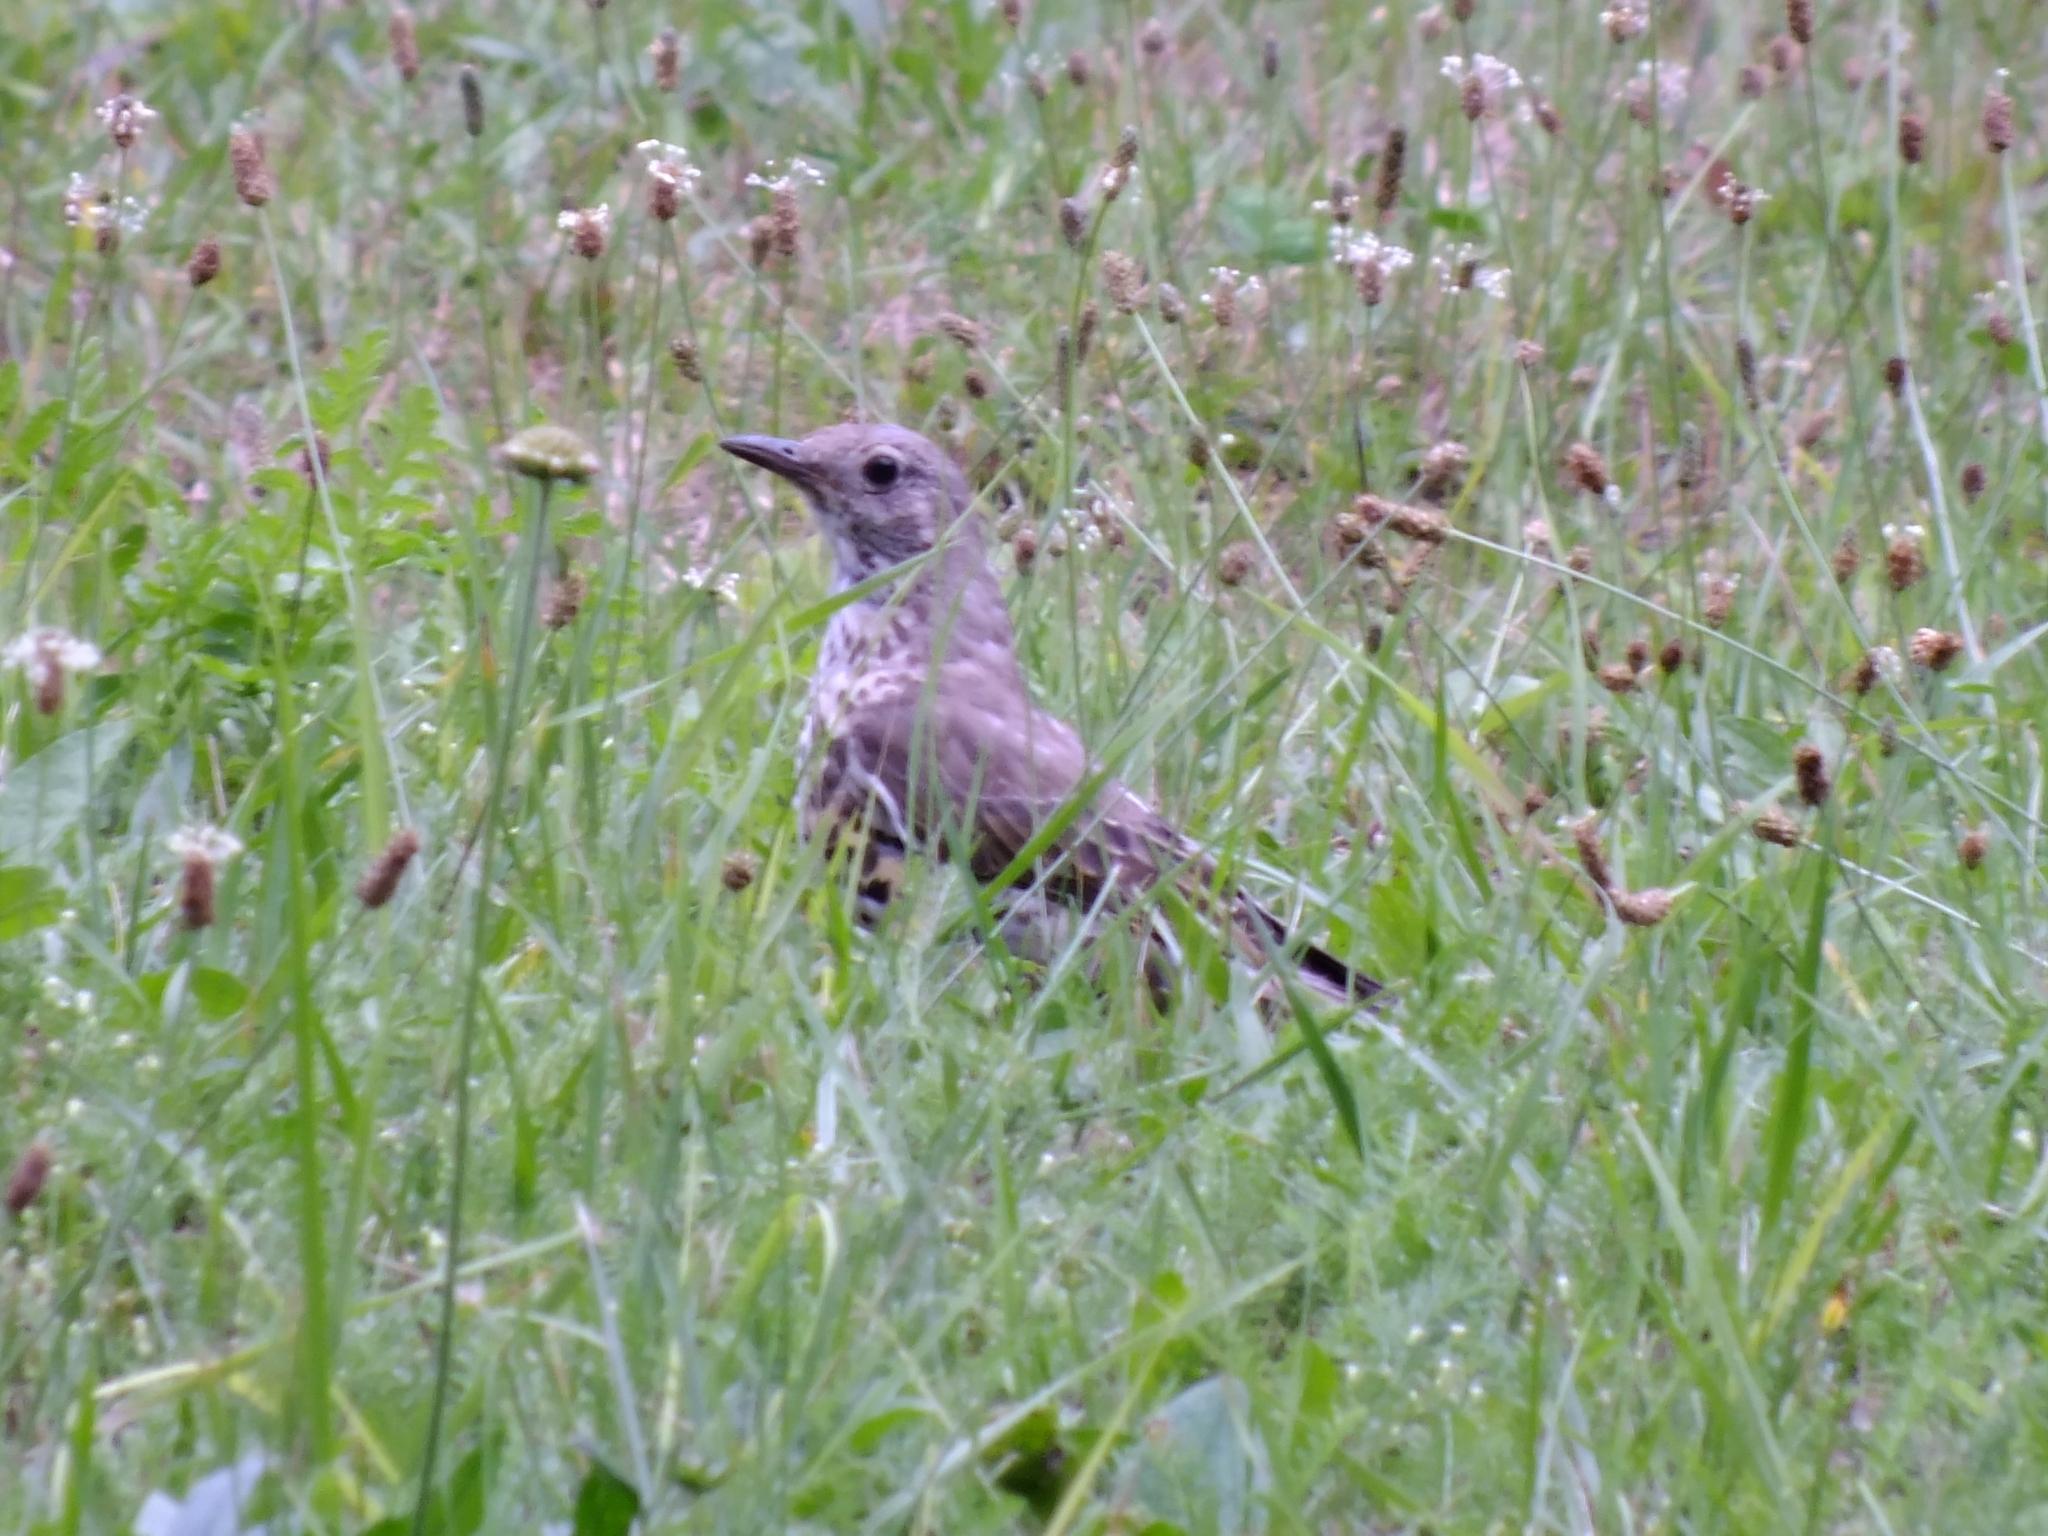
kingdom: Animalia
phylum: Chordata
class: Aves
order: Passeriformes
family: Turdidae
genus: Turdus
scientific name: Turdus viscivorus
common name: Mistle thrush
